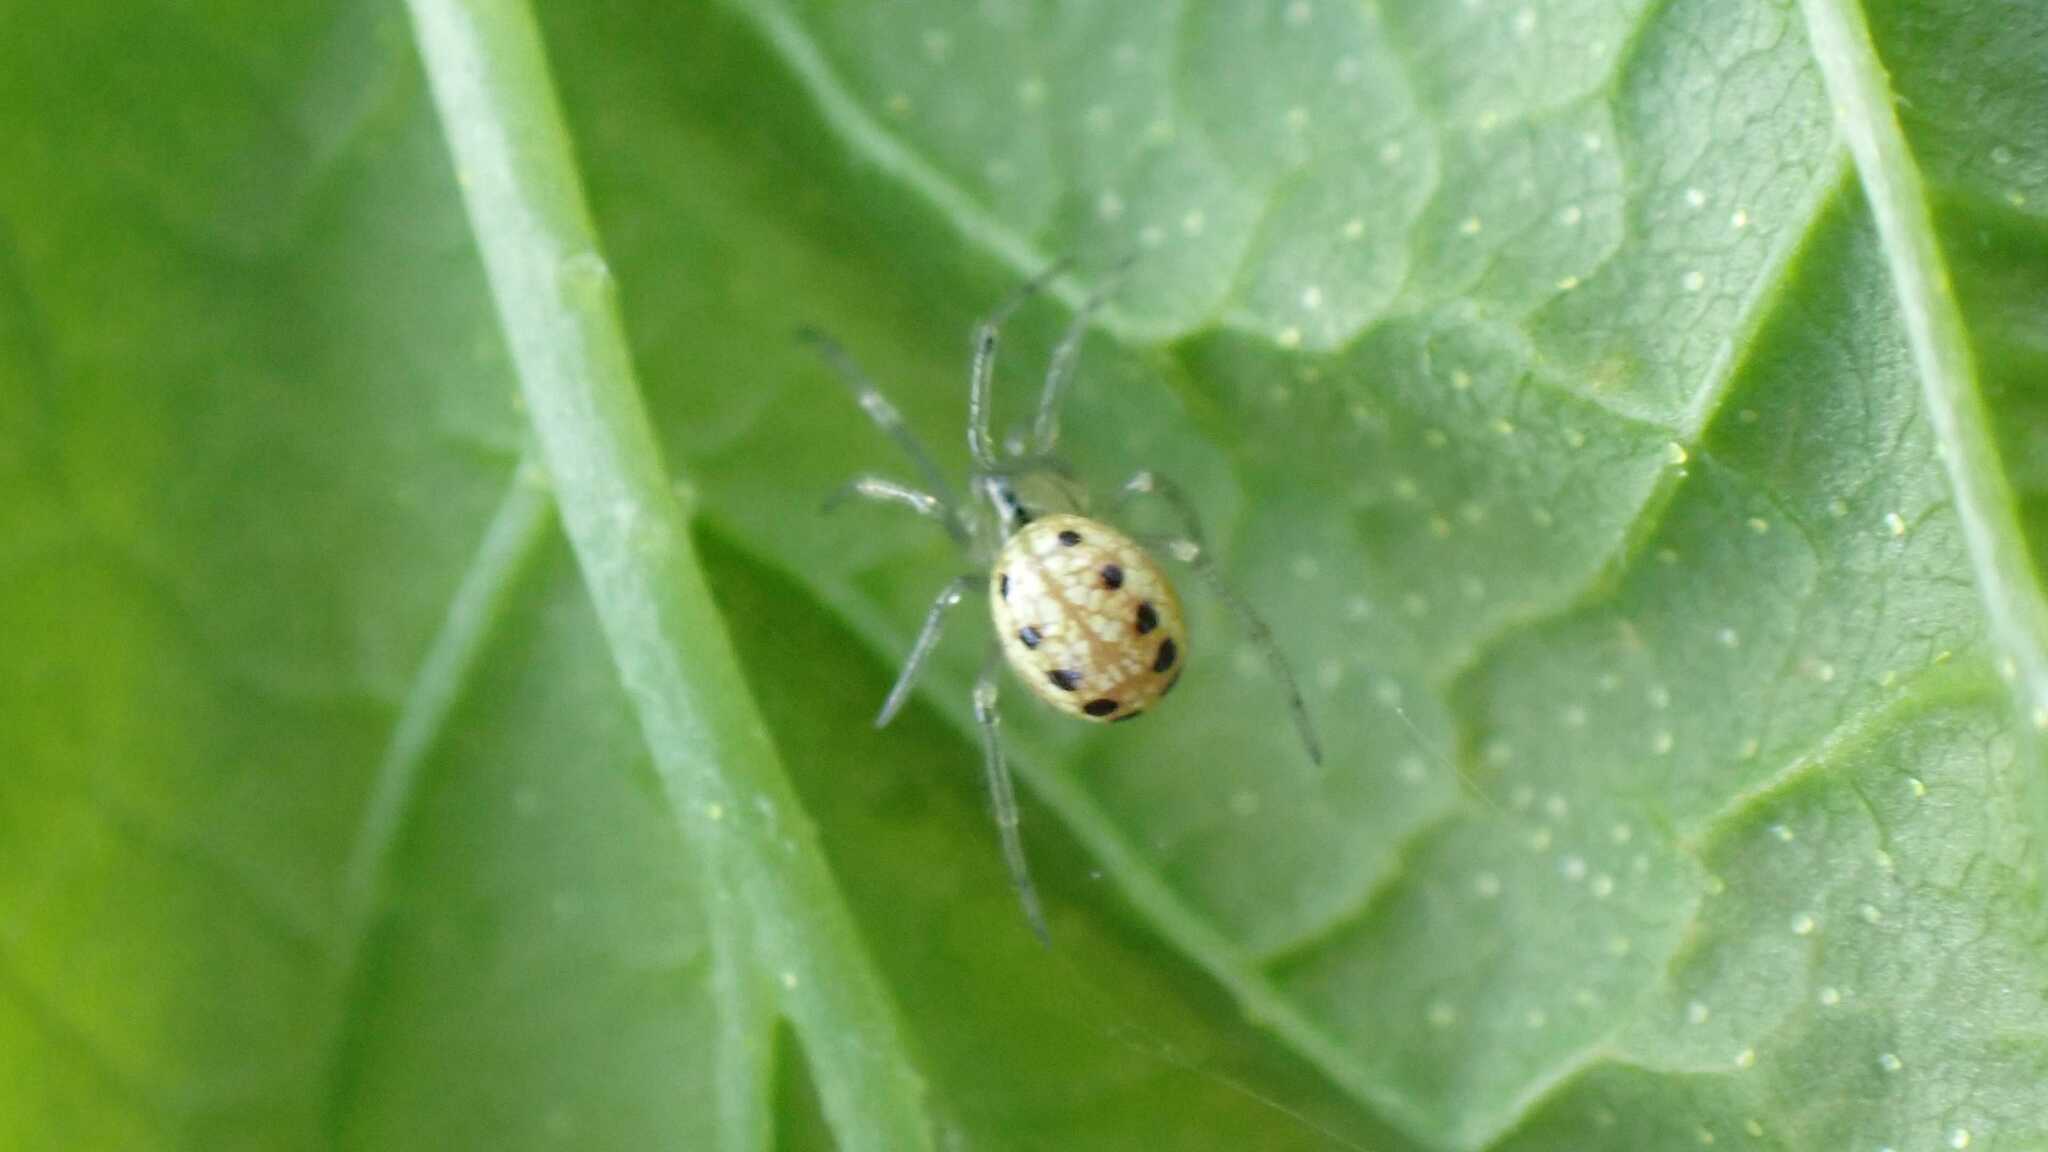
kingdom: Animalia
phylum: Arthropoda
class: Arachnida
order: Araneae
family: Theridiidae
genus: Enoplognatha
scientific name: Enoplognatha
